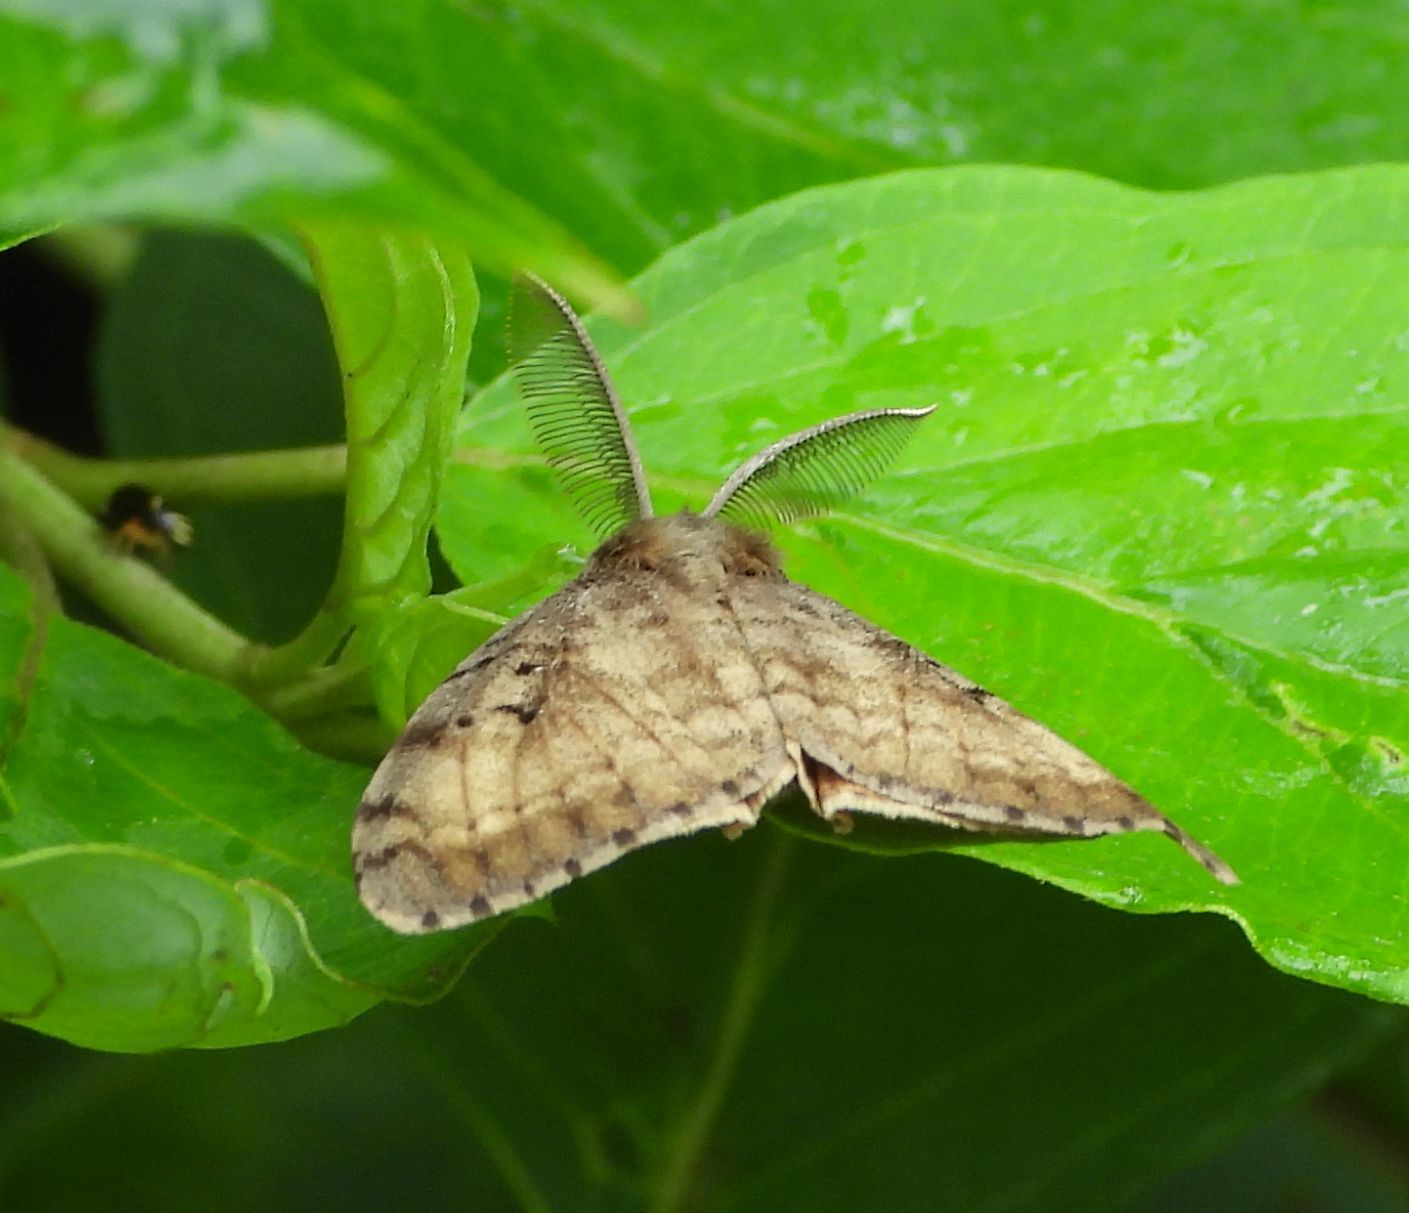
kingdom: Animalia
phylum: Arthropoda
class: Insecta
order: Lepidoptera
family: Erebidae
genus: Lymantria
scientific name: Lymantria dispar
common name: Gypsy moth
